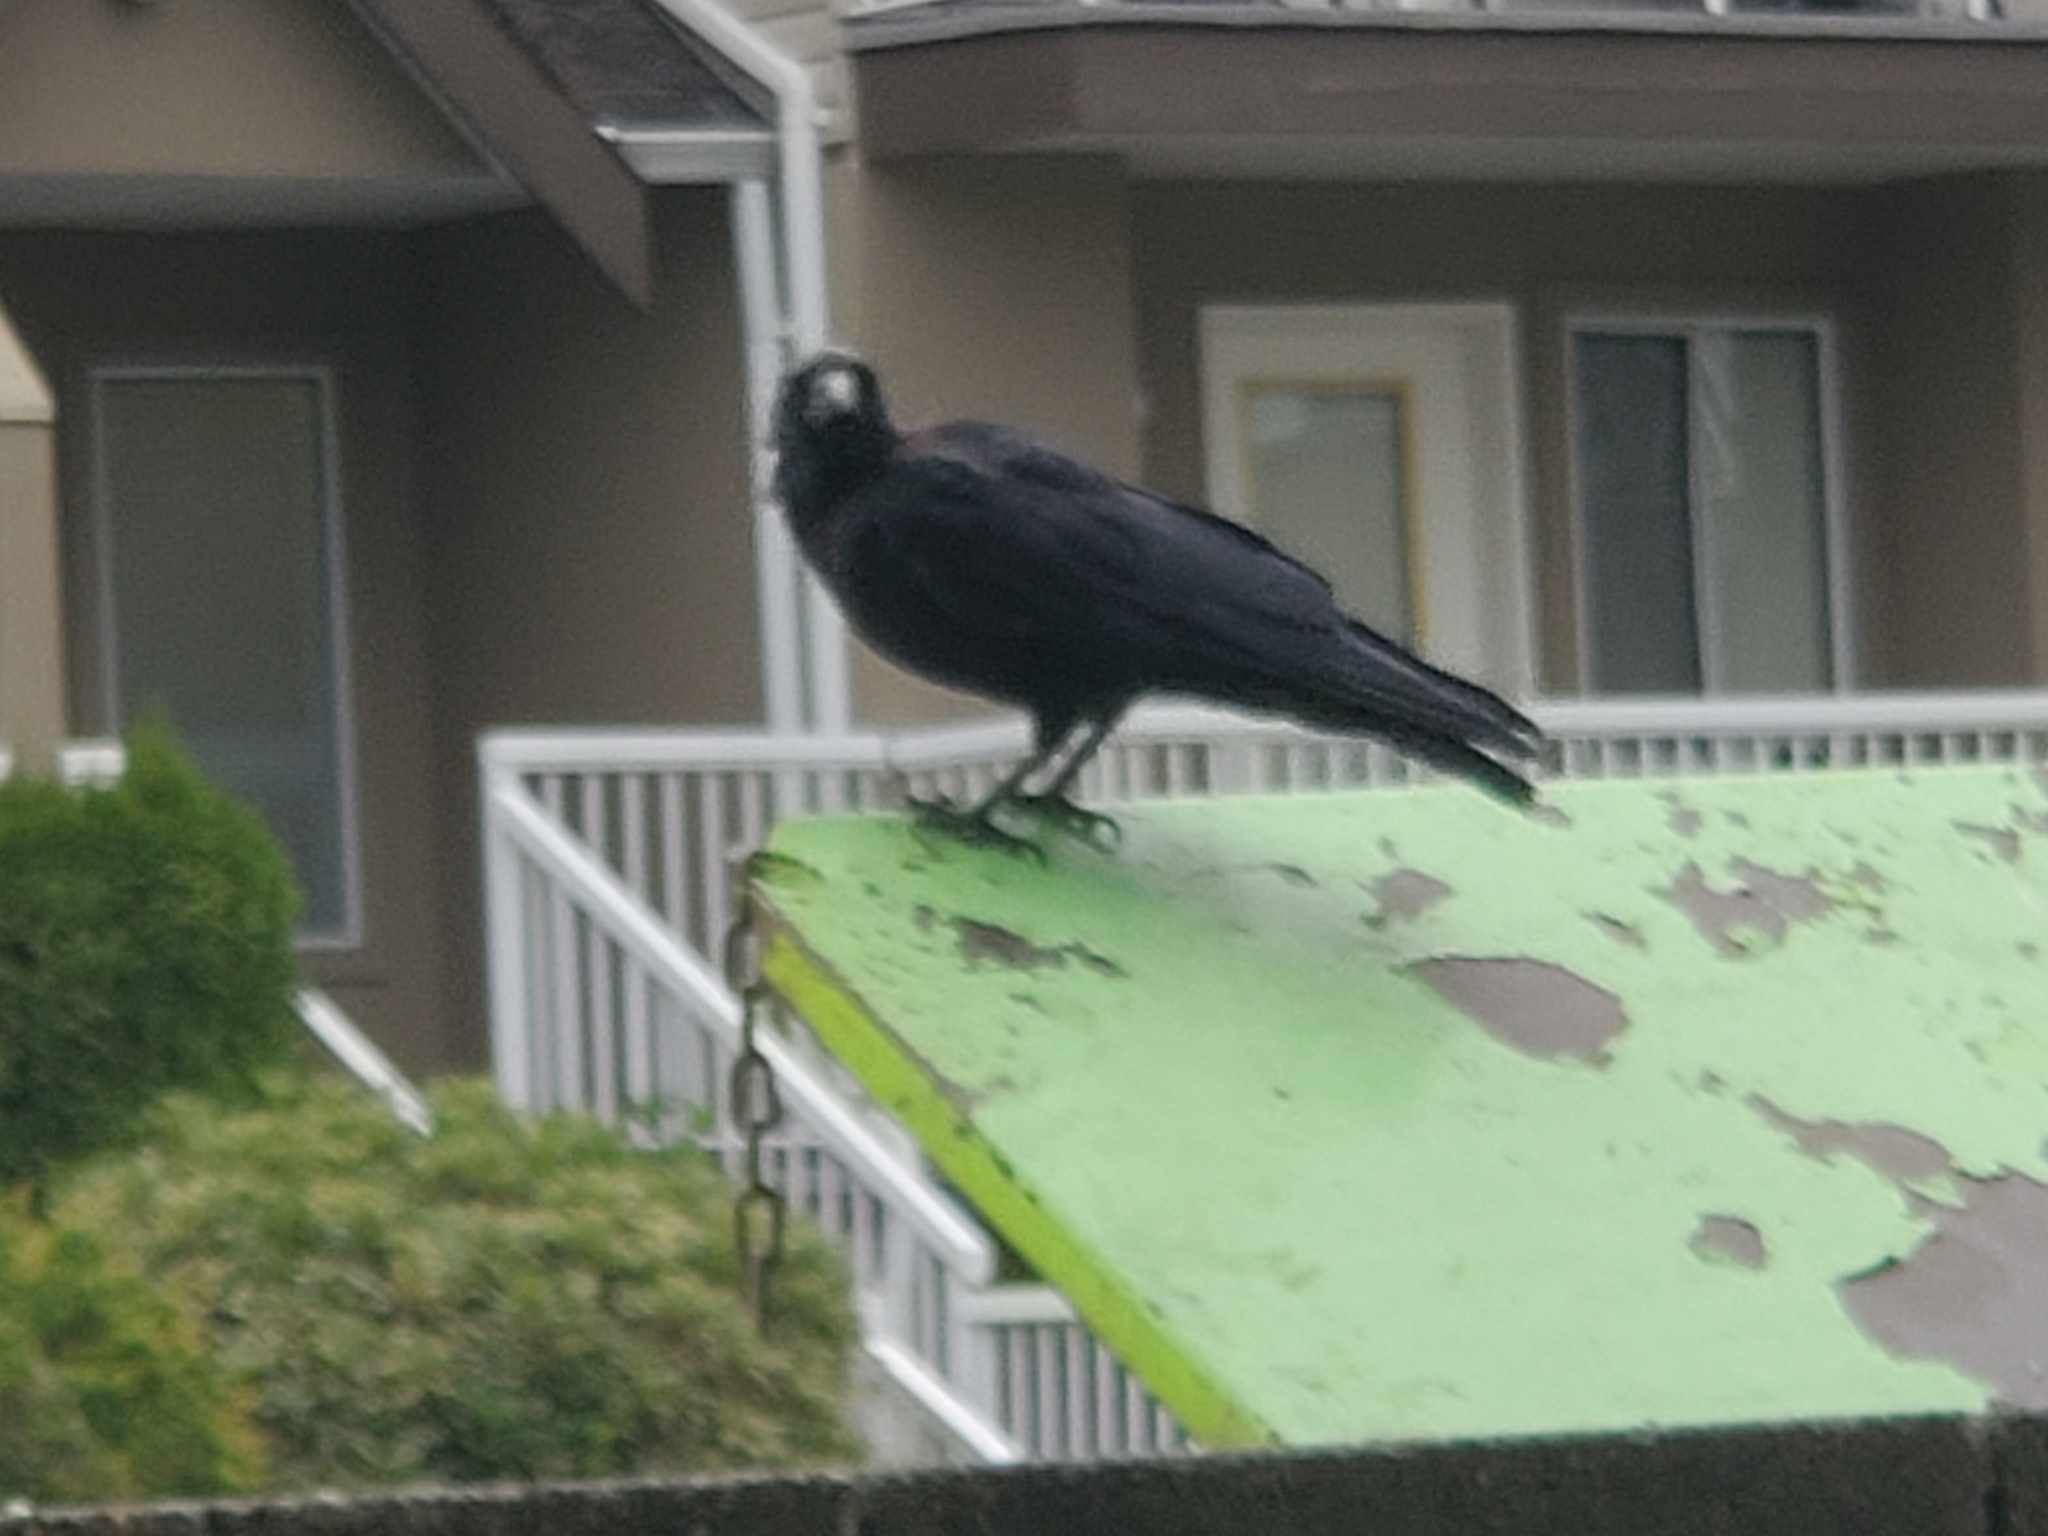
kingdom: Animalia
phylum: Chordata
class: Aves
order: Passeriformes
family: Corvidae
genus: Corvus
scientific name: Corvus brachyrhynchos
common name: American crow
